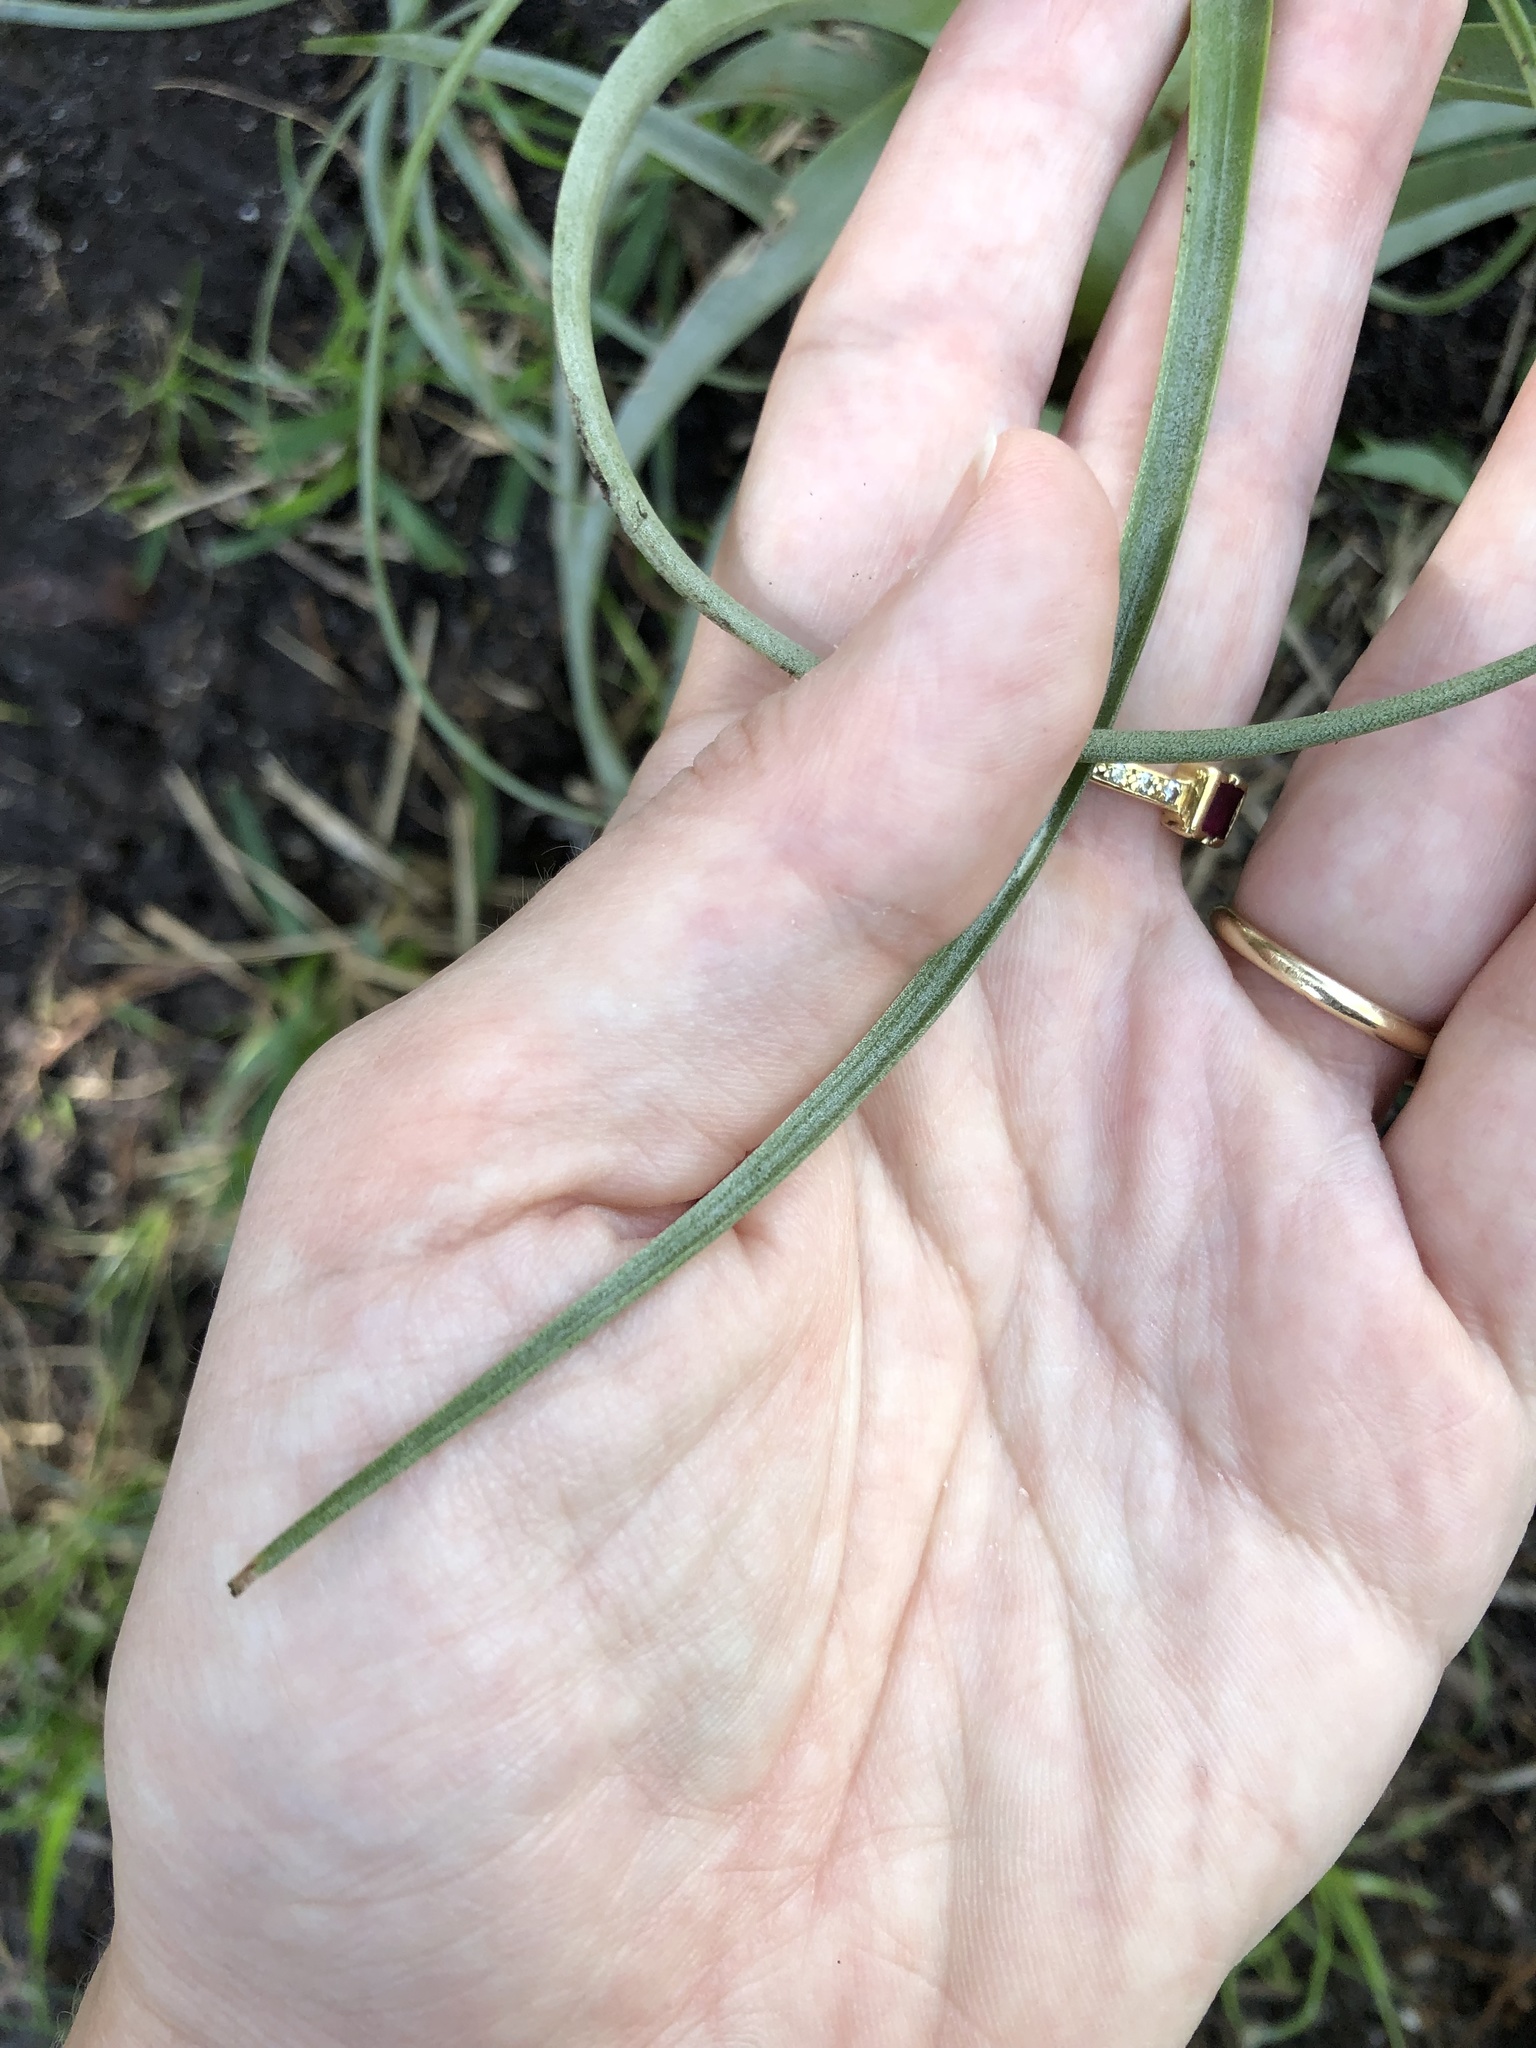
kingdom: Plantae
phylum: Tracheophyta
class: Liliopsida
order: Poales
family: Bromeliaceae
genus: Tillandsia
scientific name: Tillandsia utriculata
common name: Wild pine
